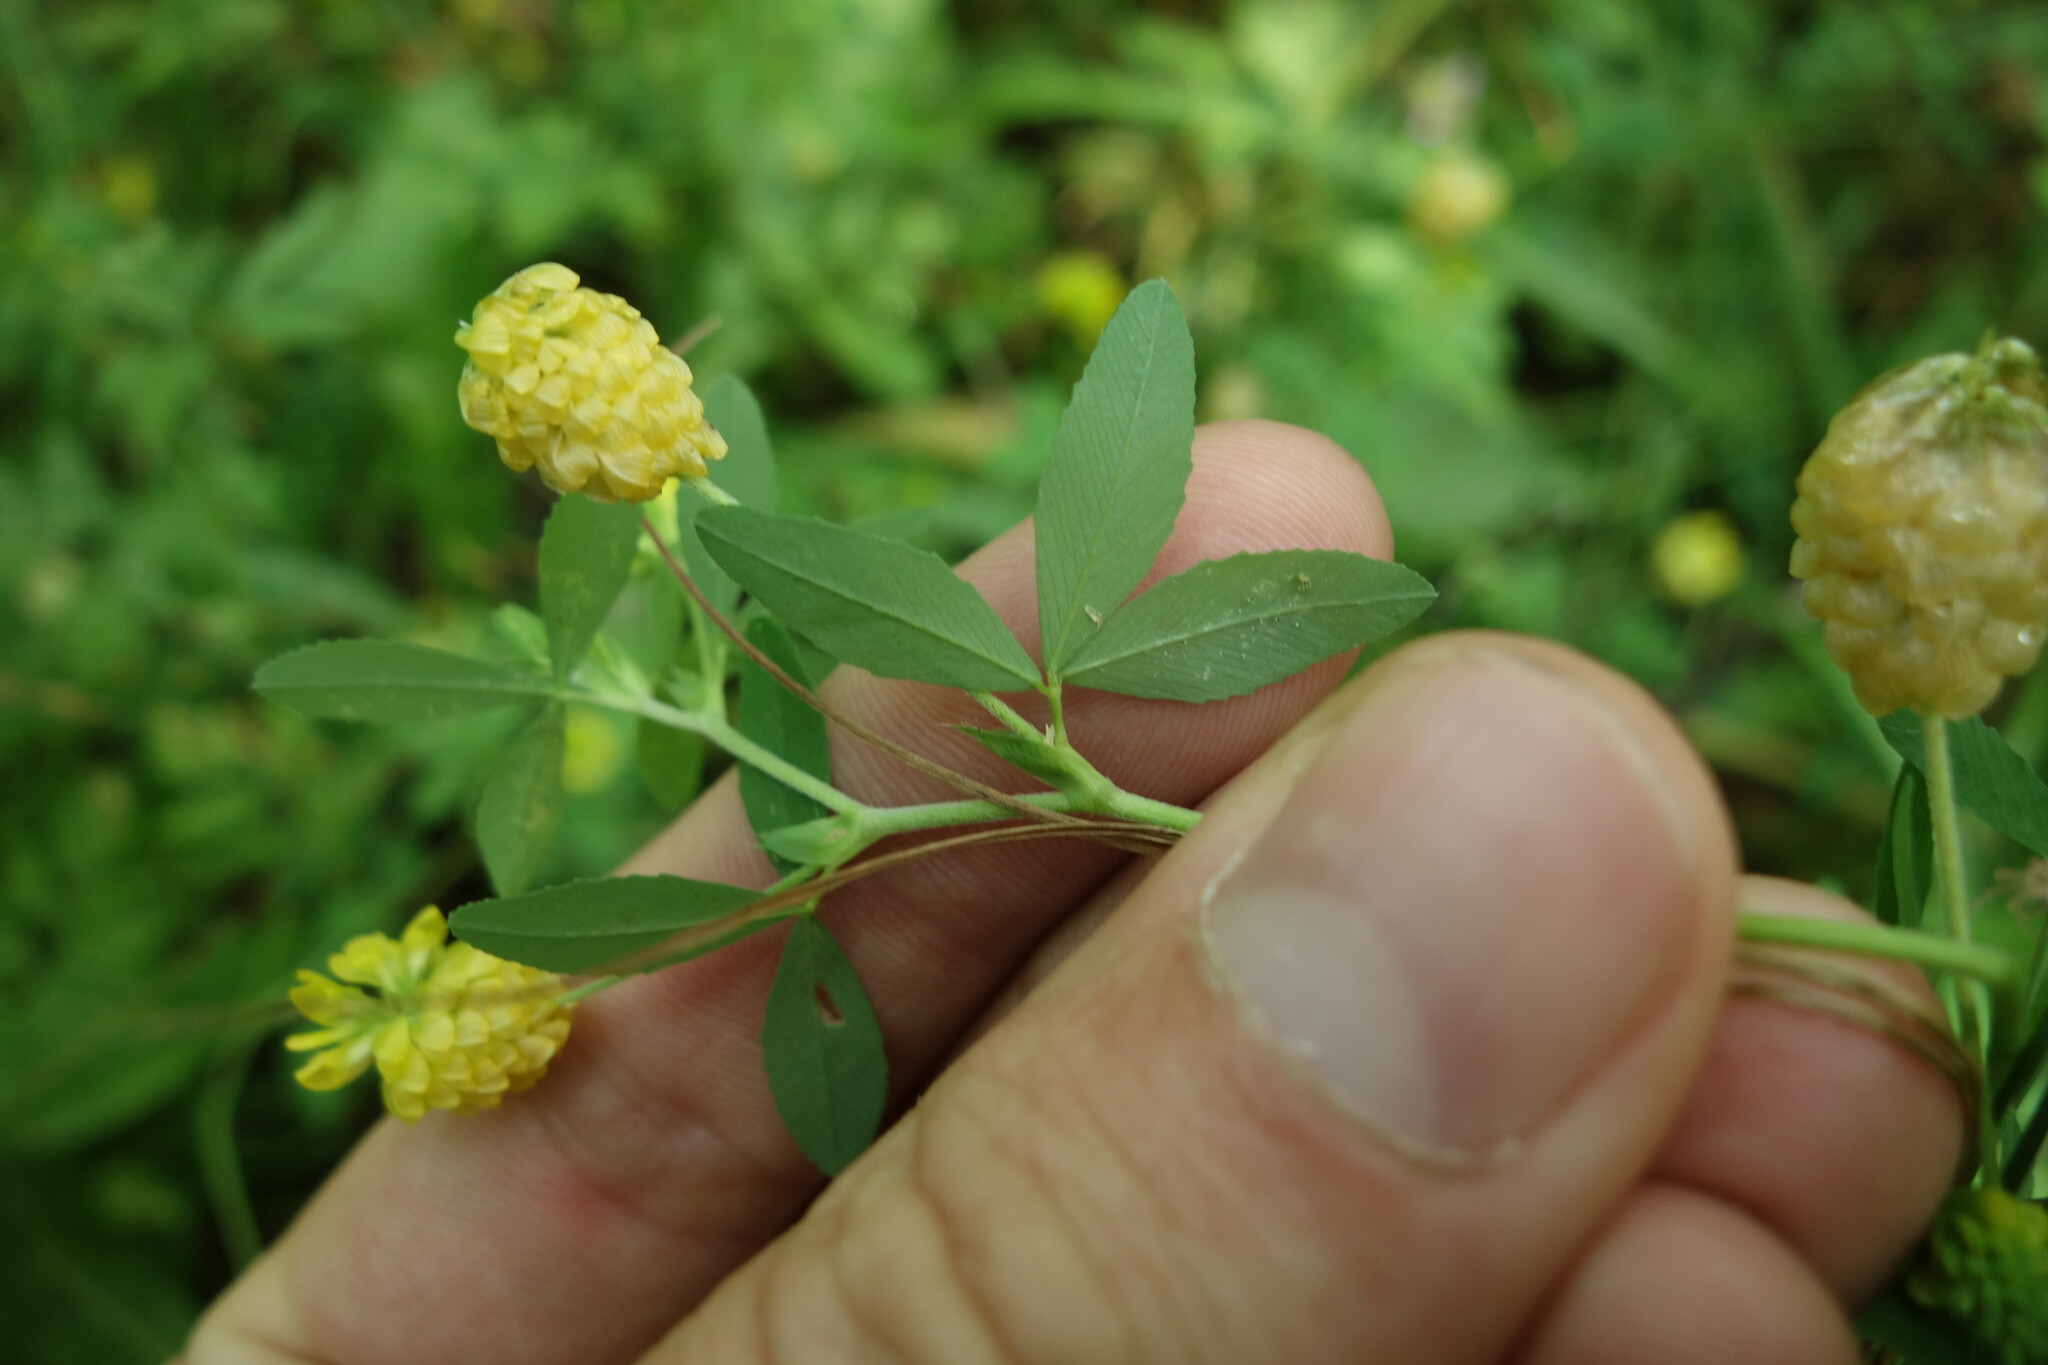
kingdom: Plantae
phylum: Tracheophyta
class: Magnoliopsida
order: Fabales
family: Fabaceae
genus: Trifolium
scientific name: Trifolium aureum
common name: Golden clover
